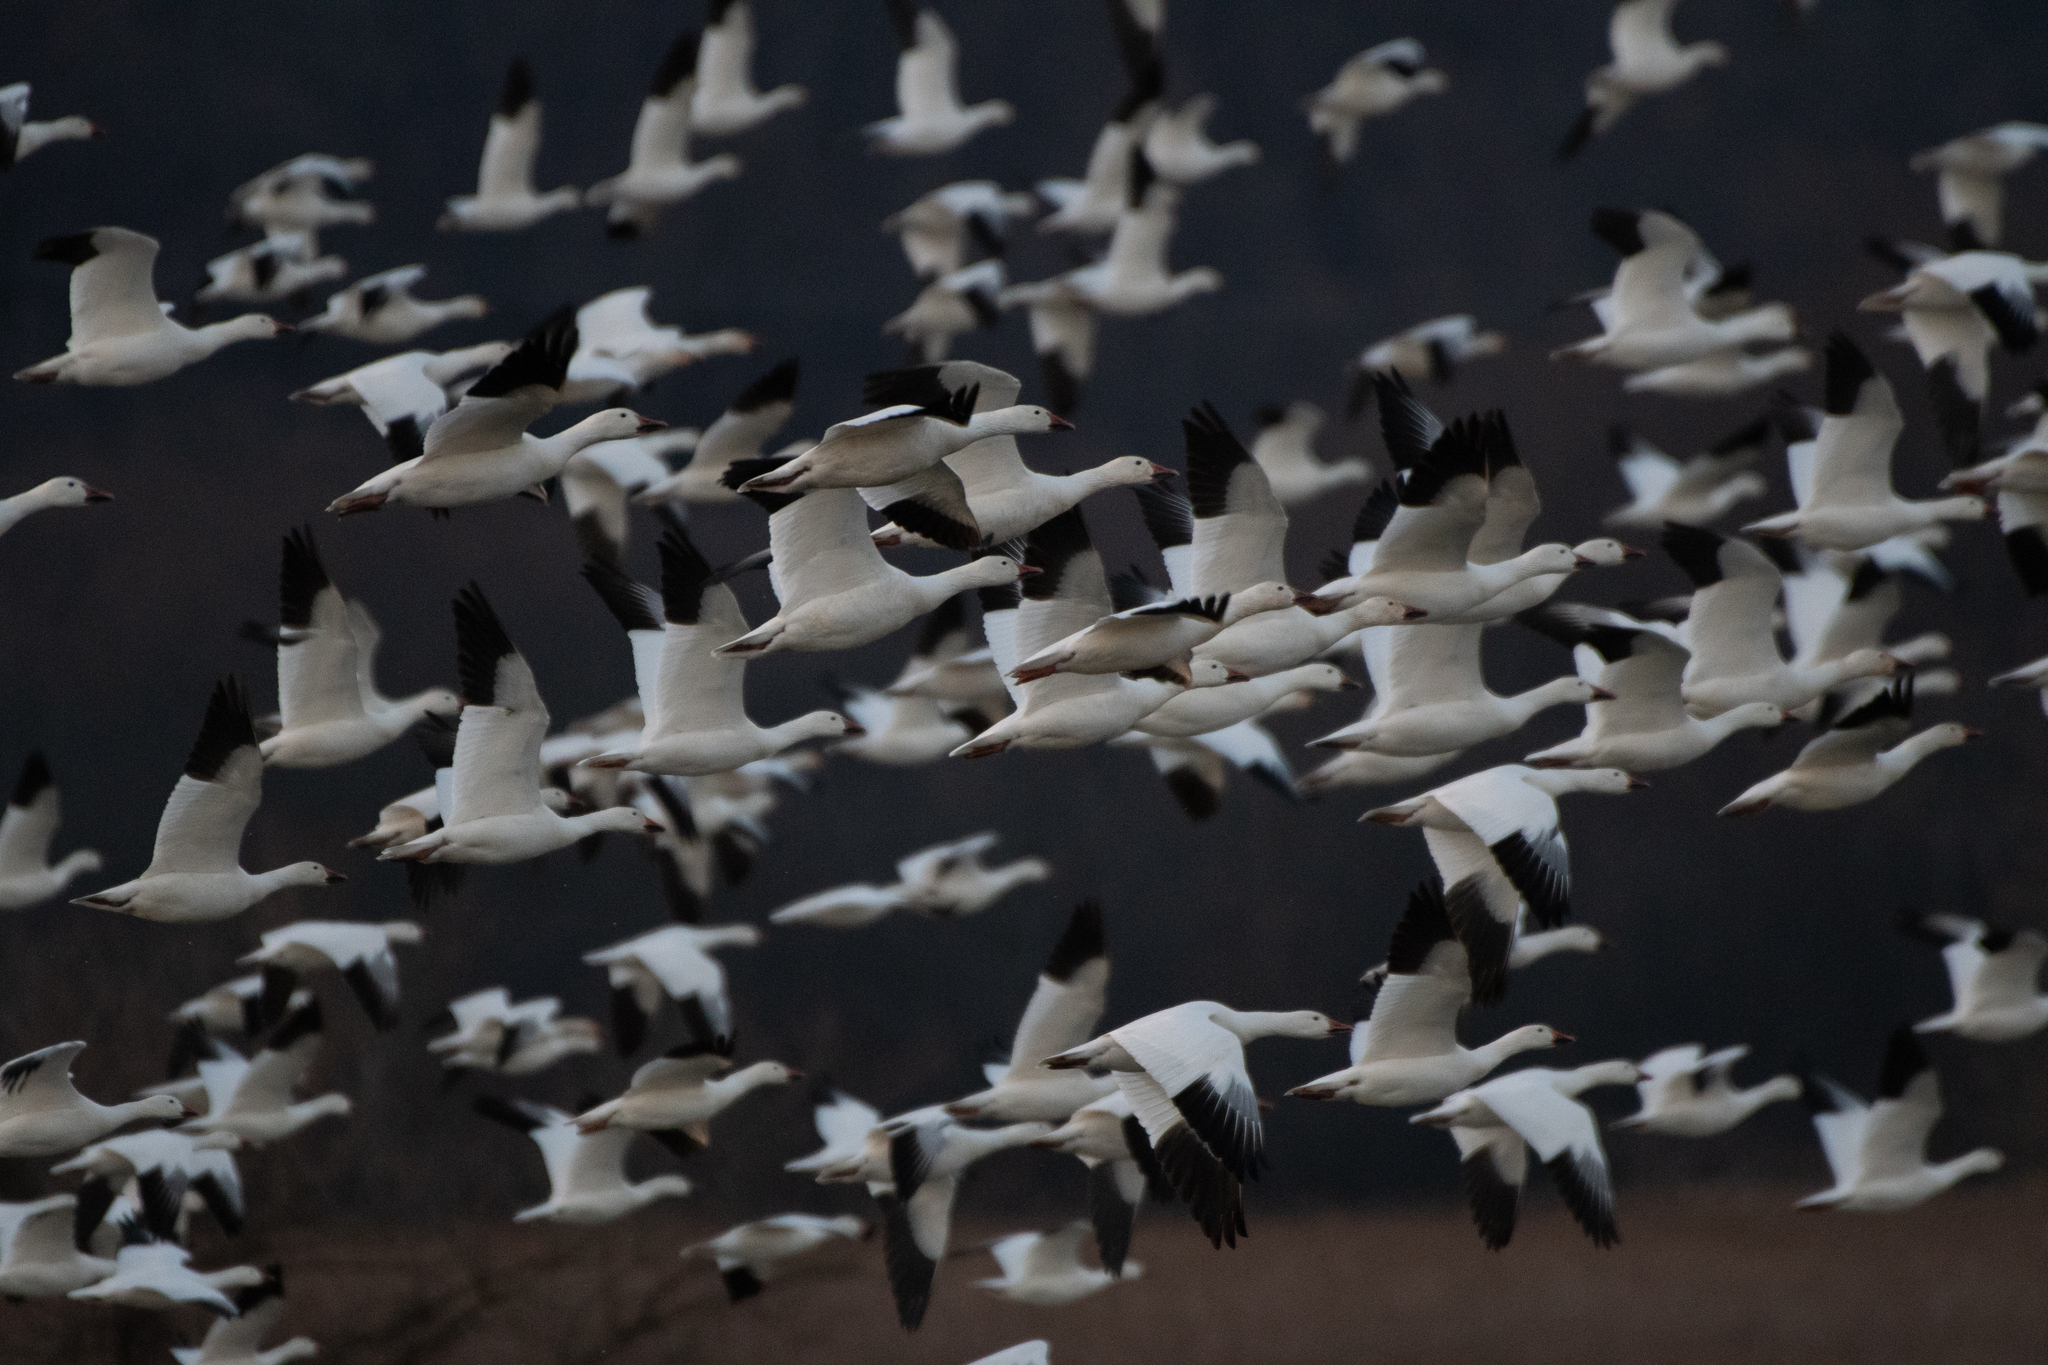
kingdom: Animalia
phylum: Chordata
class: Aves
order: Anseriformes
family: Anatidae
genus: Anser
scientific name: Anser caerulescens
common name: Snow goose
